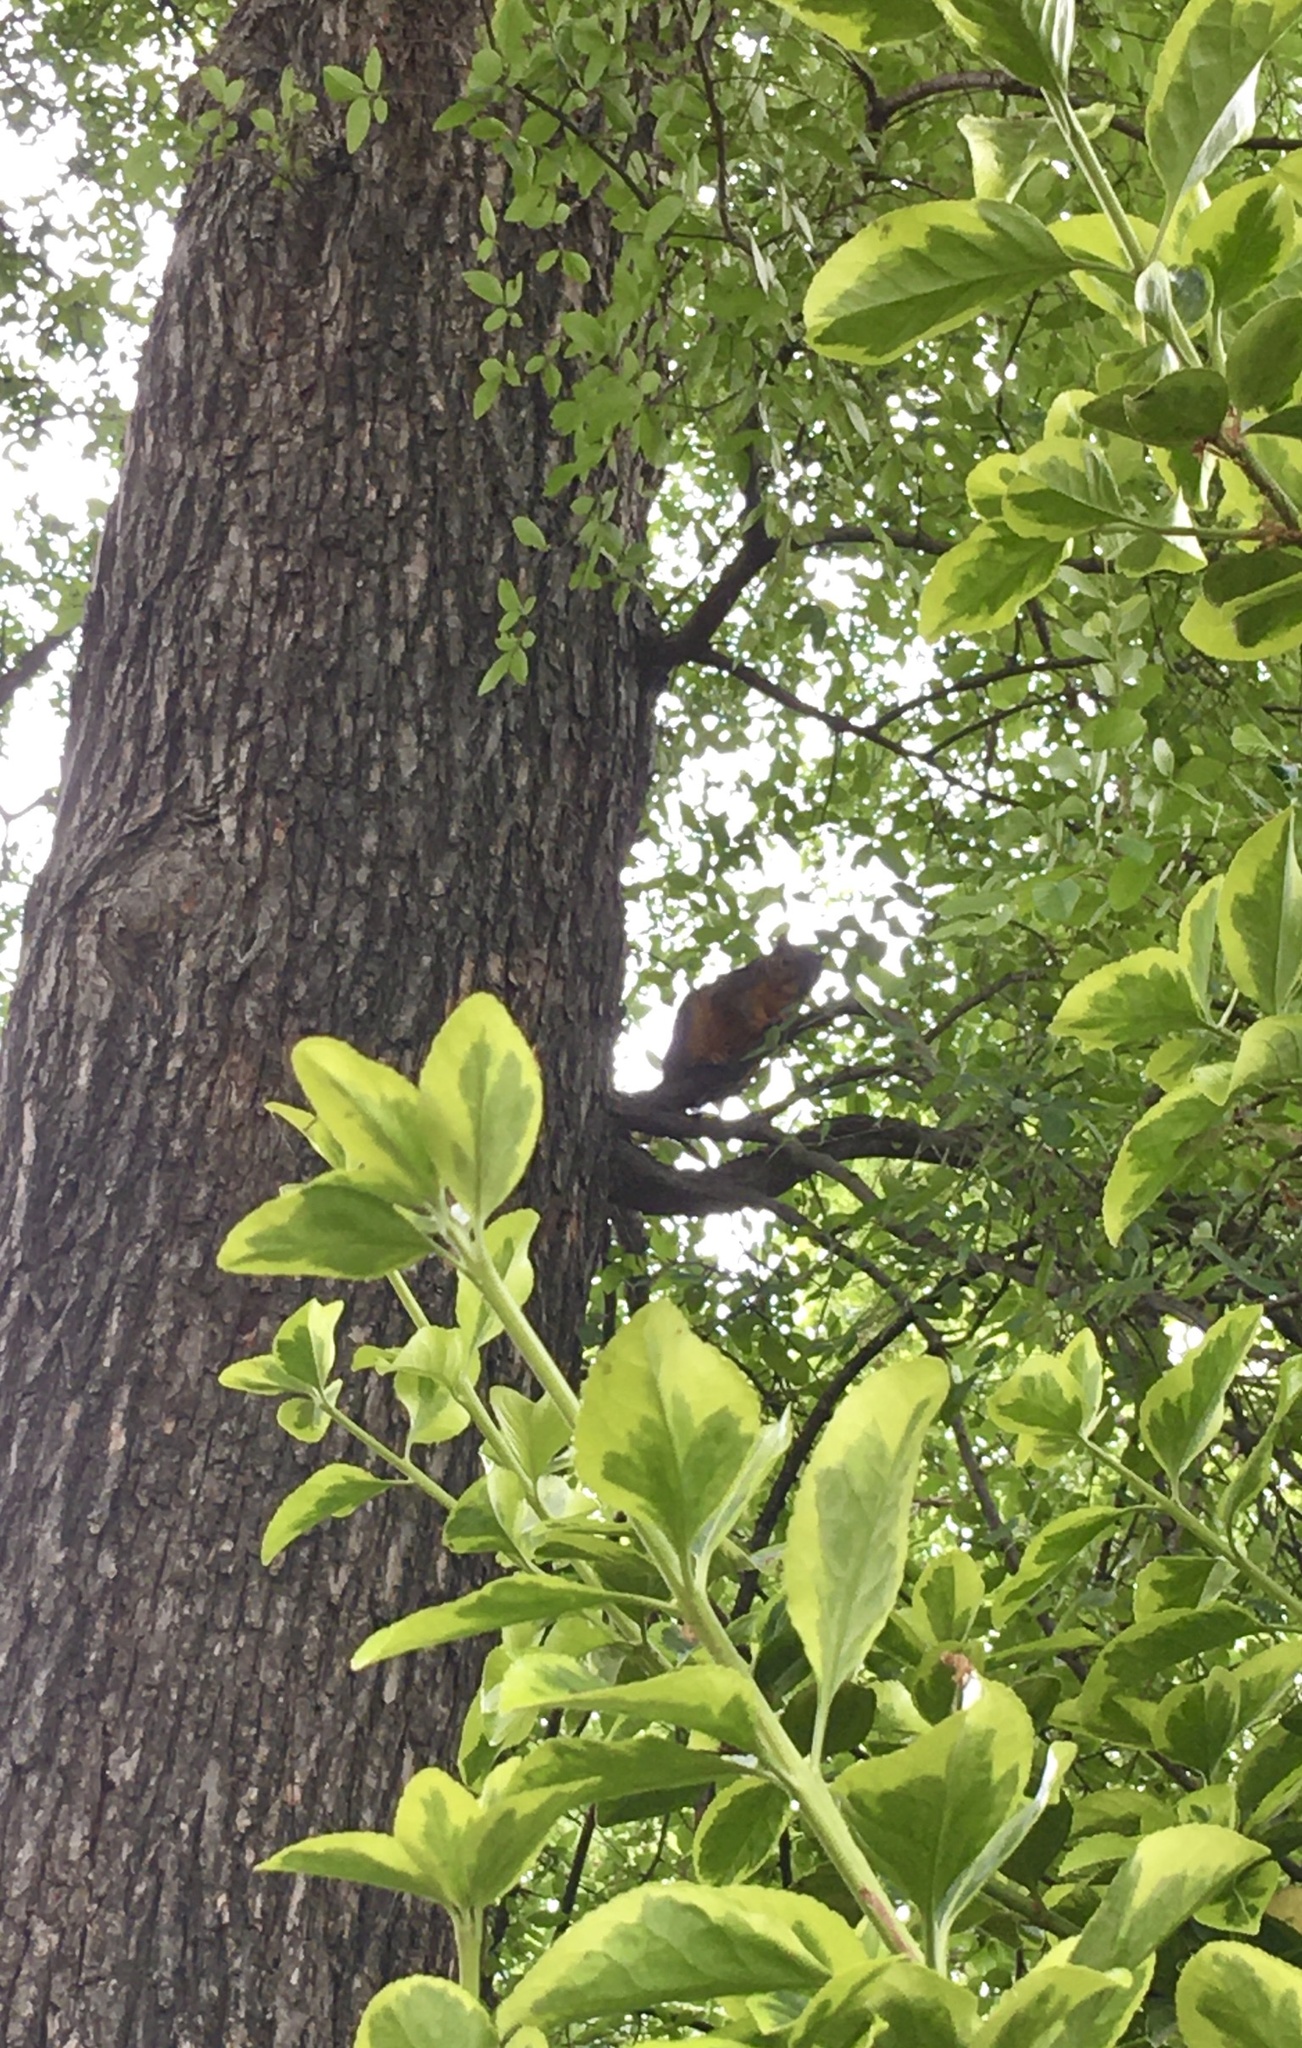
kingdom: Animalia
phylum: Chordata
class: Mammalia
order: Rodentia
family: Sciuridae
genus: Sciurus
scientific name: Sciurus niger
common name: Fox squirrel
